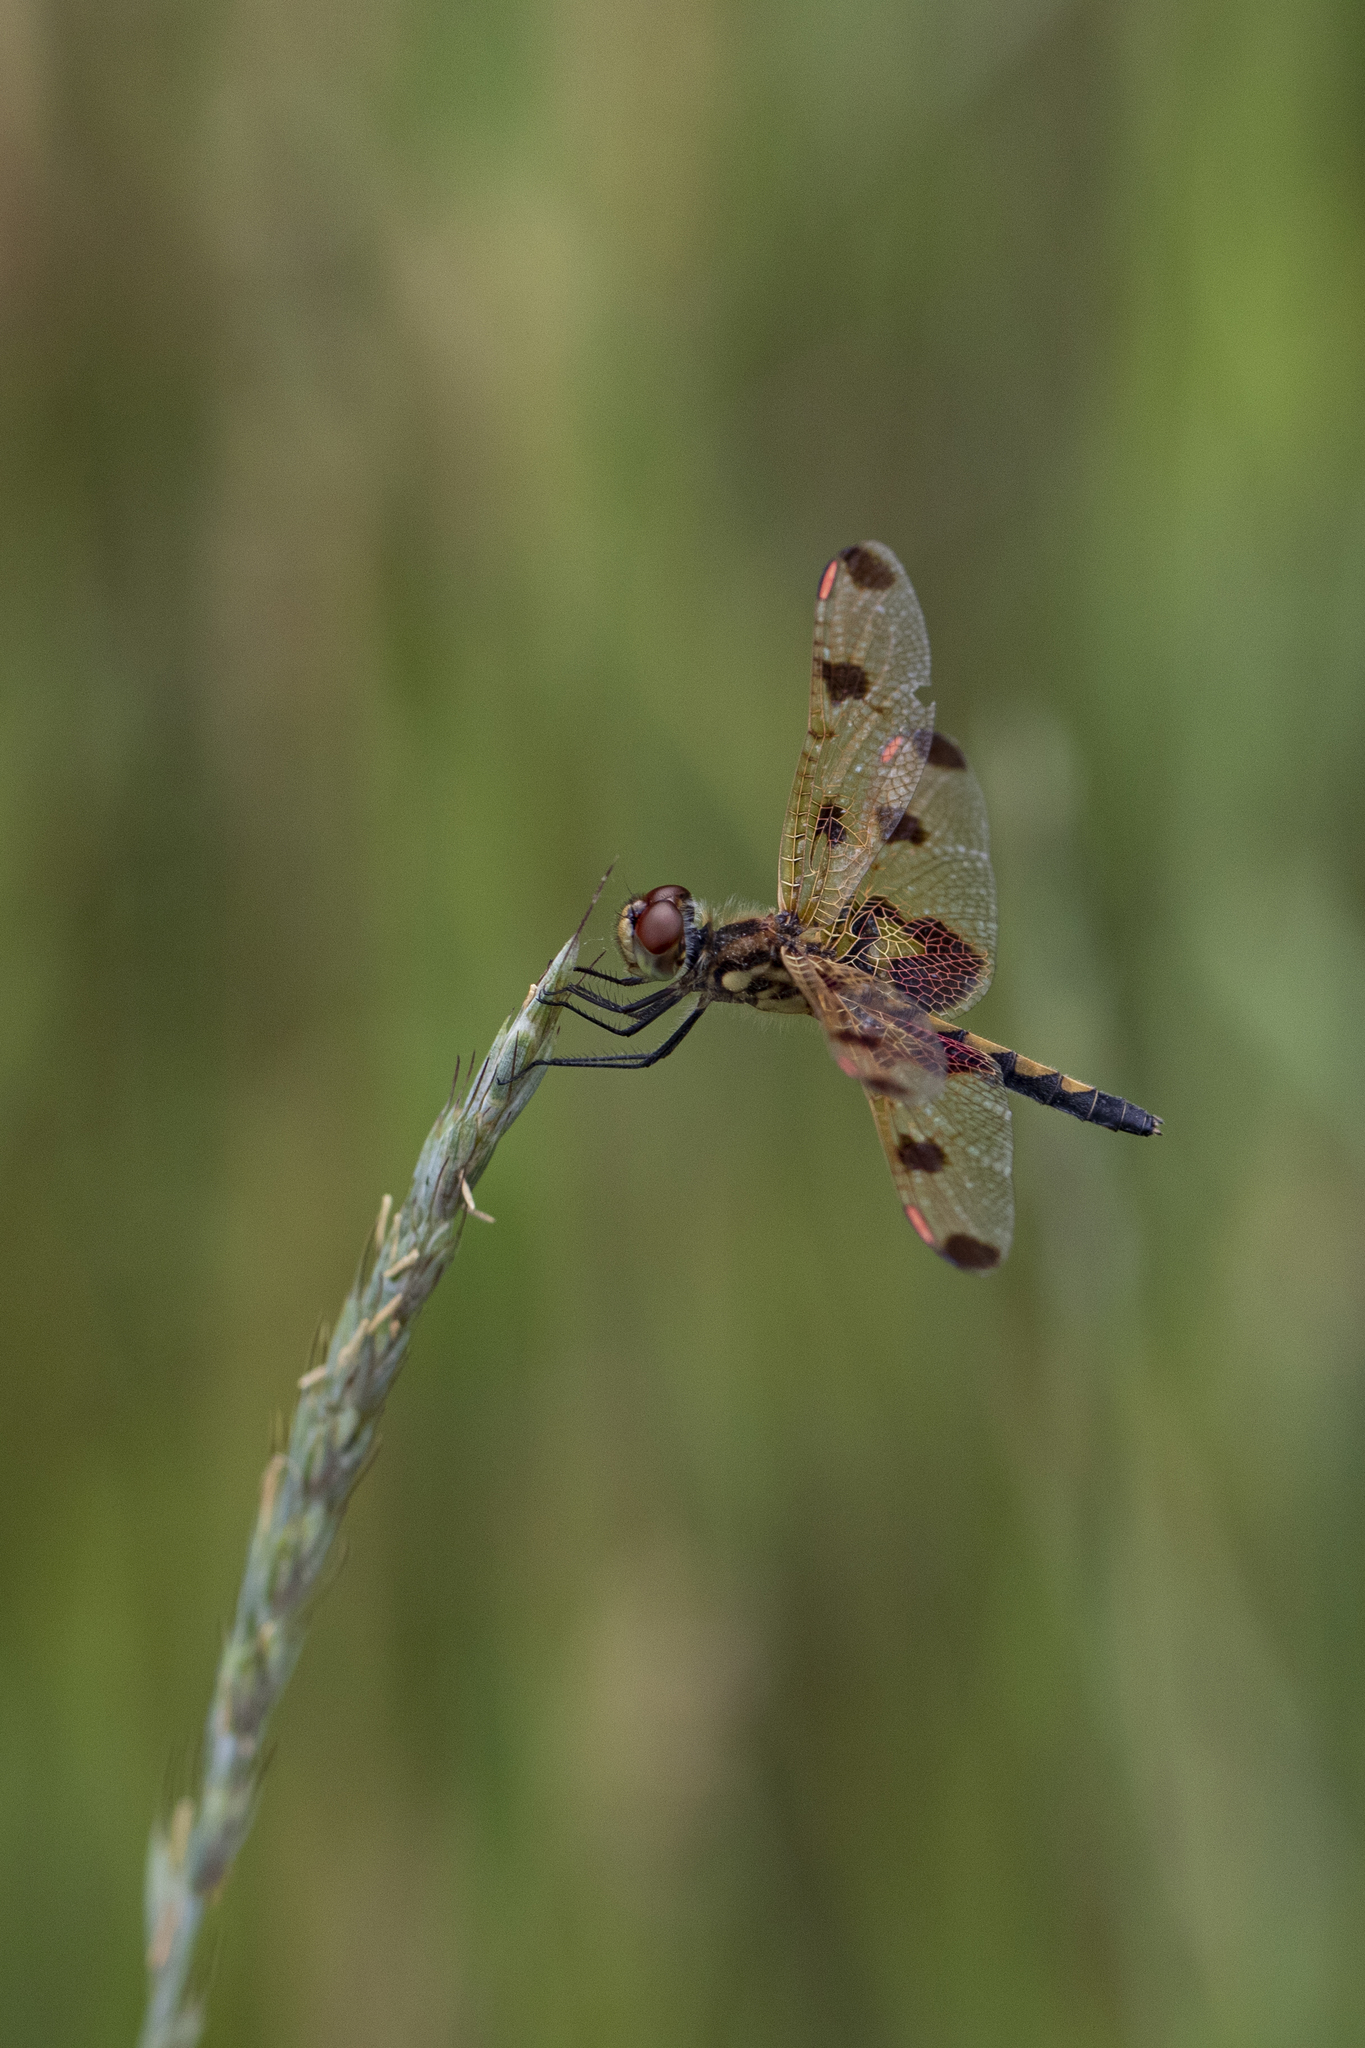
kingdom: Animalia
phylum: Arthropoda
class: Insecta
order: Odonata
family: Libellulidae
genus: Celithemis
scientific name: Celithemis elisa
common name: Calico pennant
